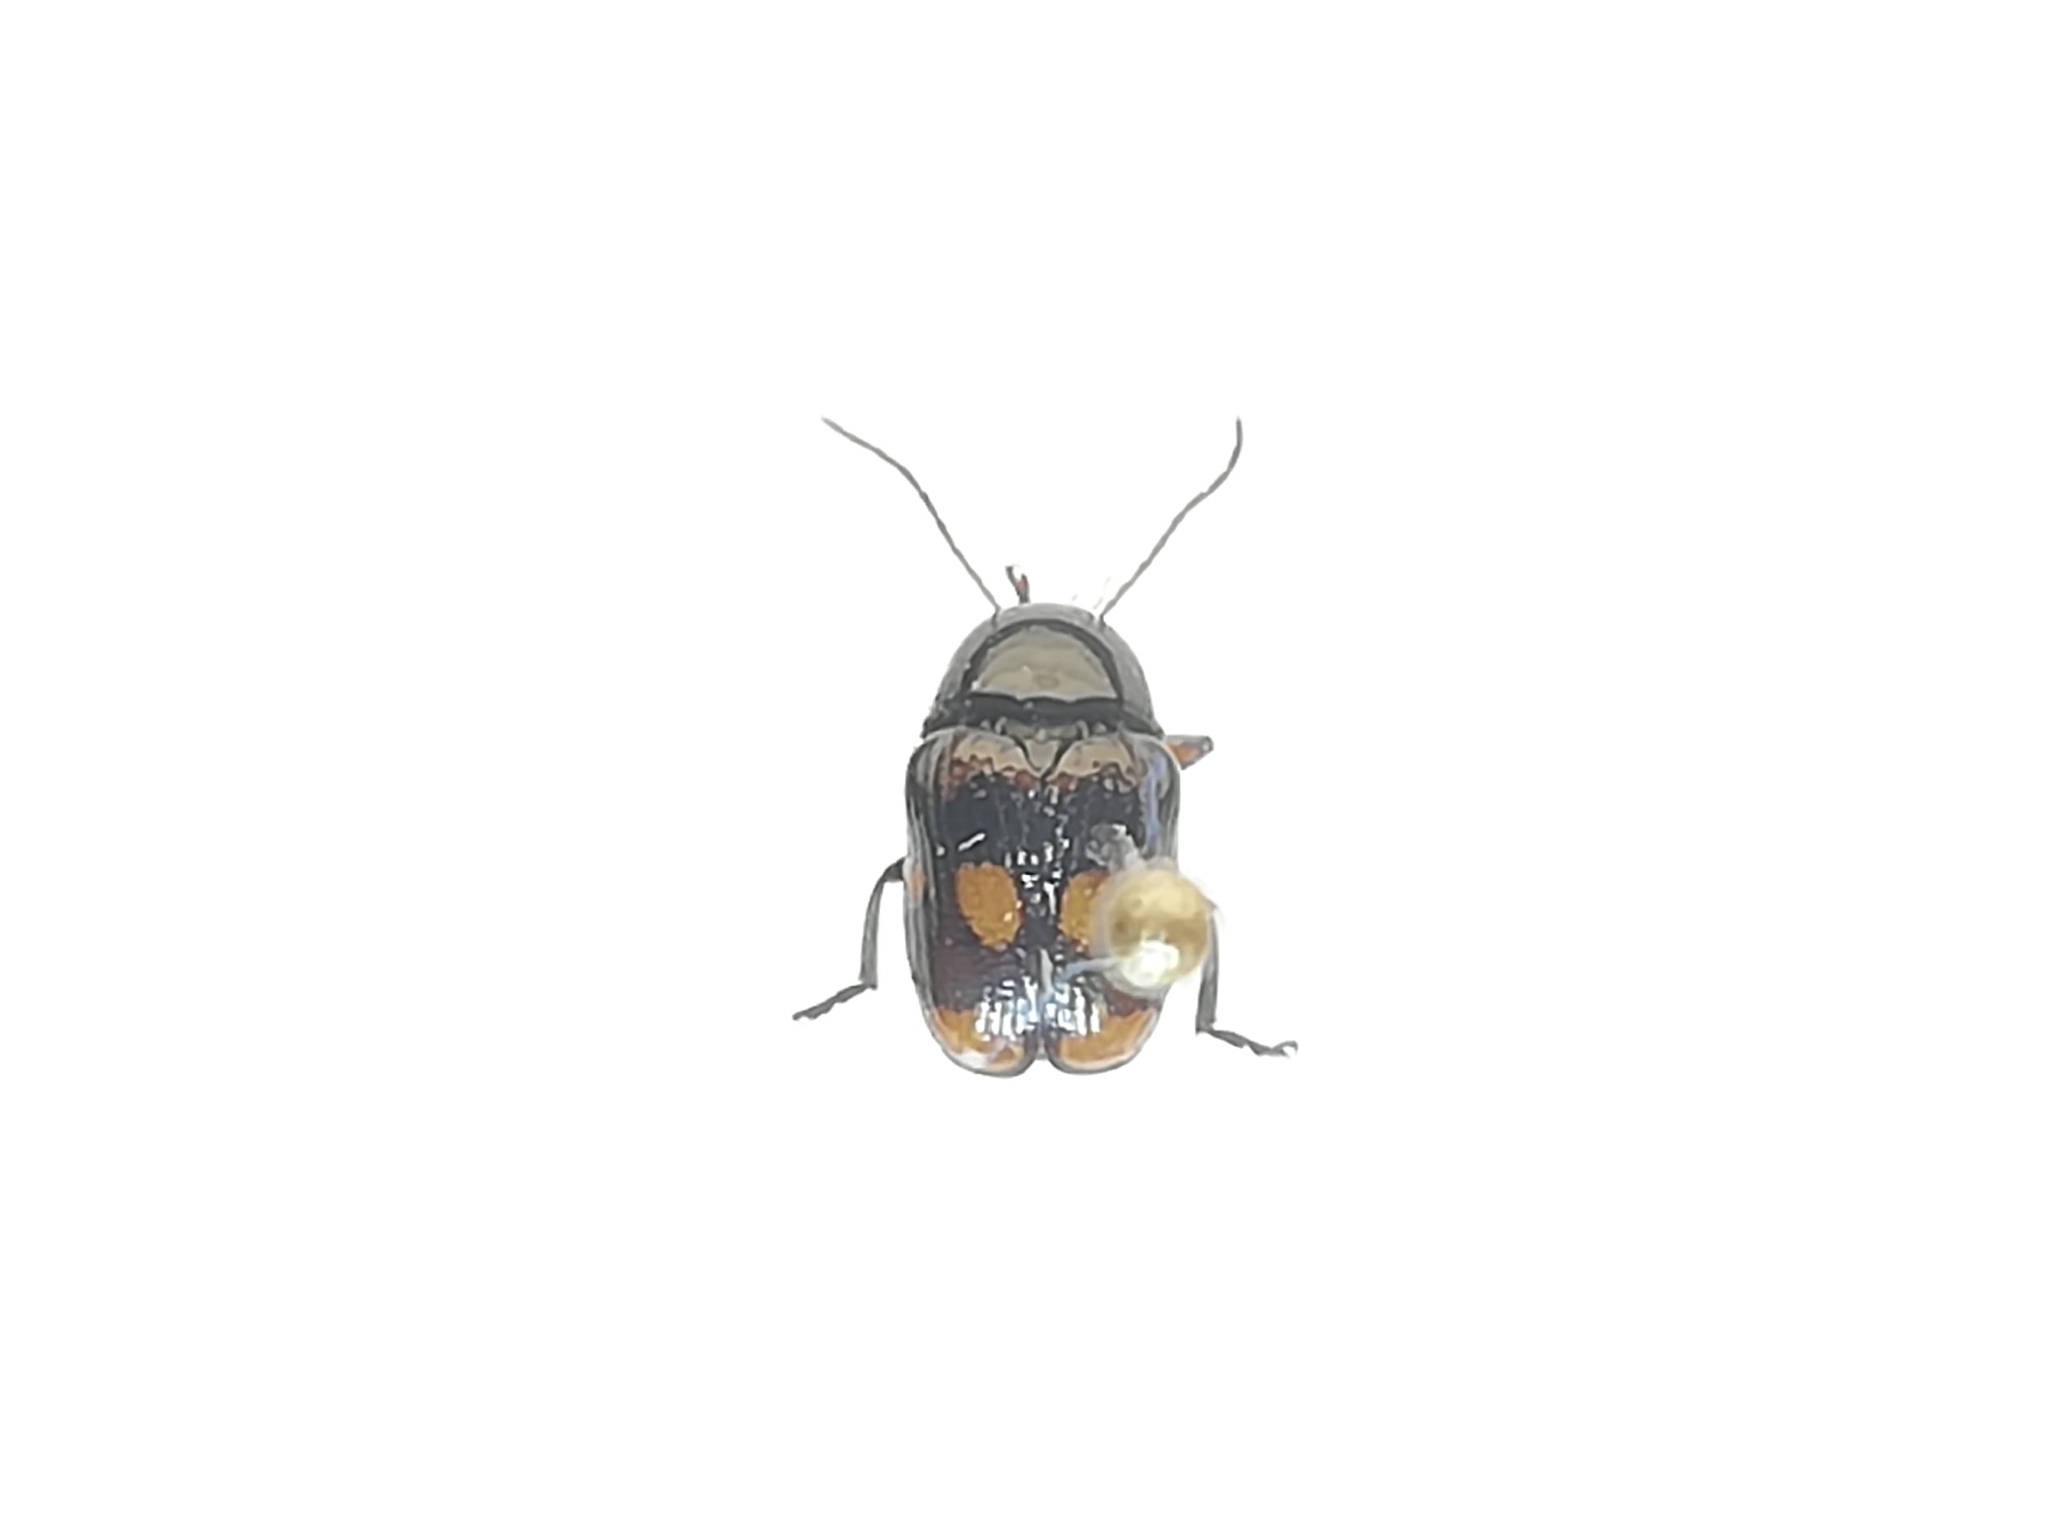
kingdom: Animalia
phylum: Arthropoda
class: Insecta
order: Coleoptera
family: Chrysomelidae
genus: Cryptocephalus
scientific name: Cryptocephalus anticus
